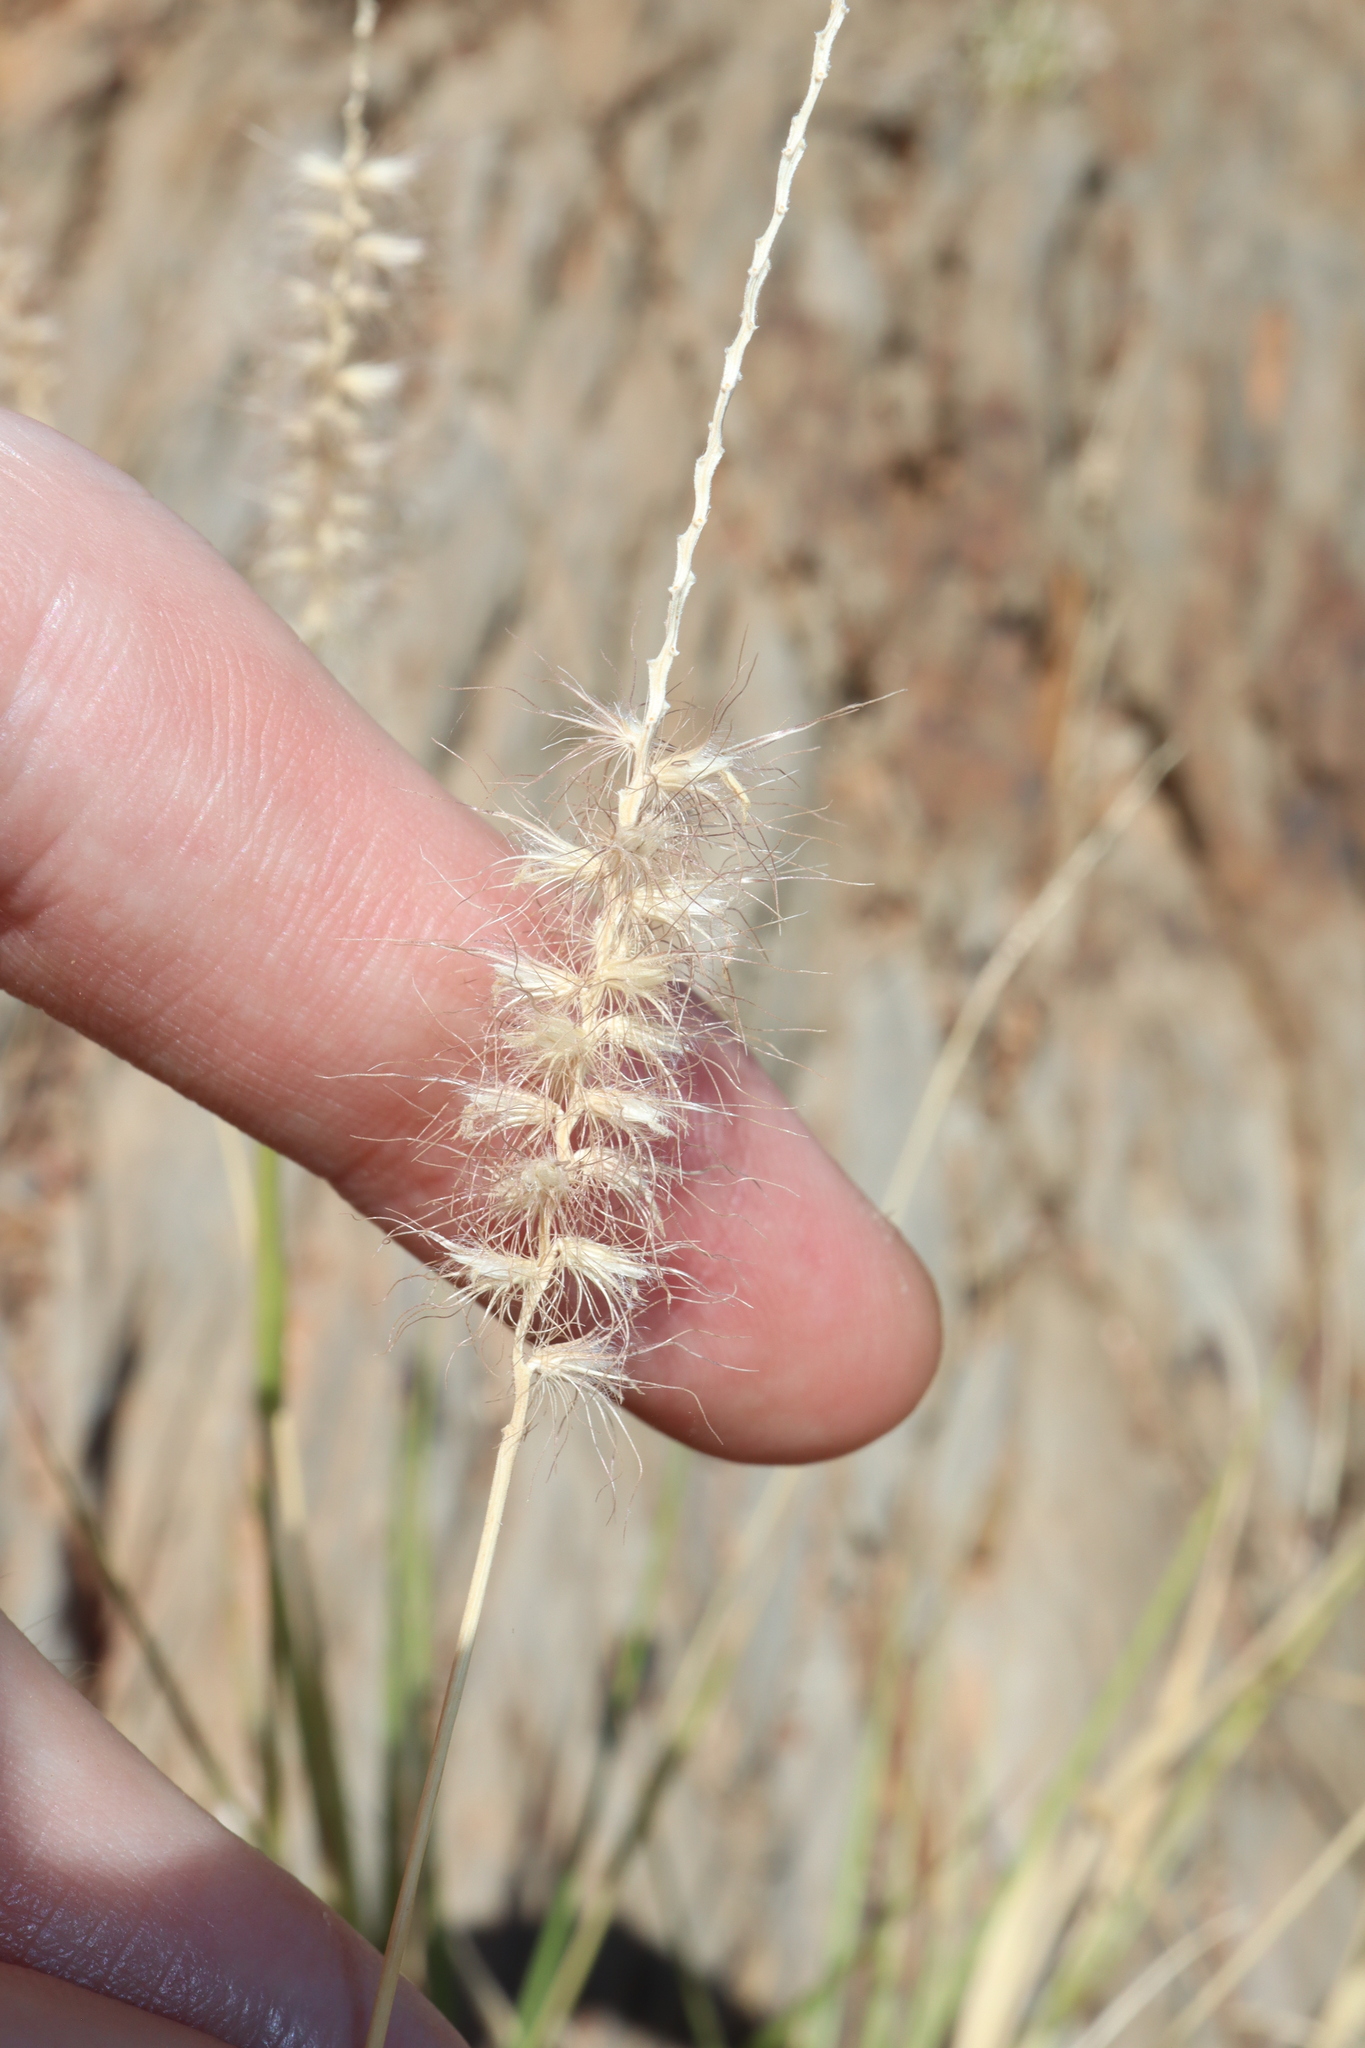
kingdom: Plantae
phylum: Tracheophyta
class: Liliopsida
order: Poales
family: Poaceae
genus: Cenchrus
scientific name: Cenchrus ciliaris
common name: Buffelgrass
